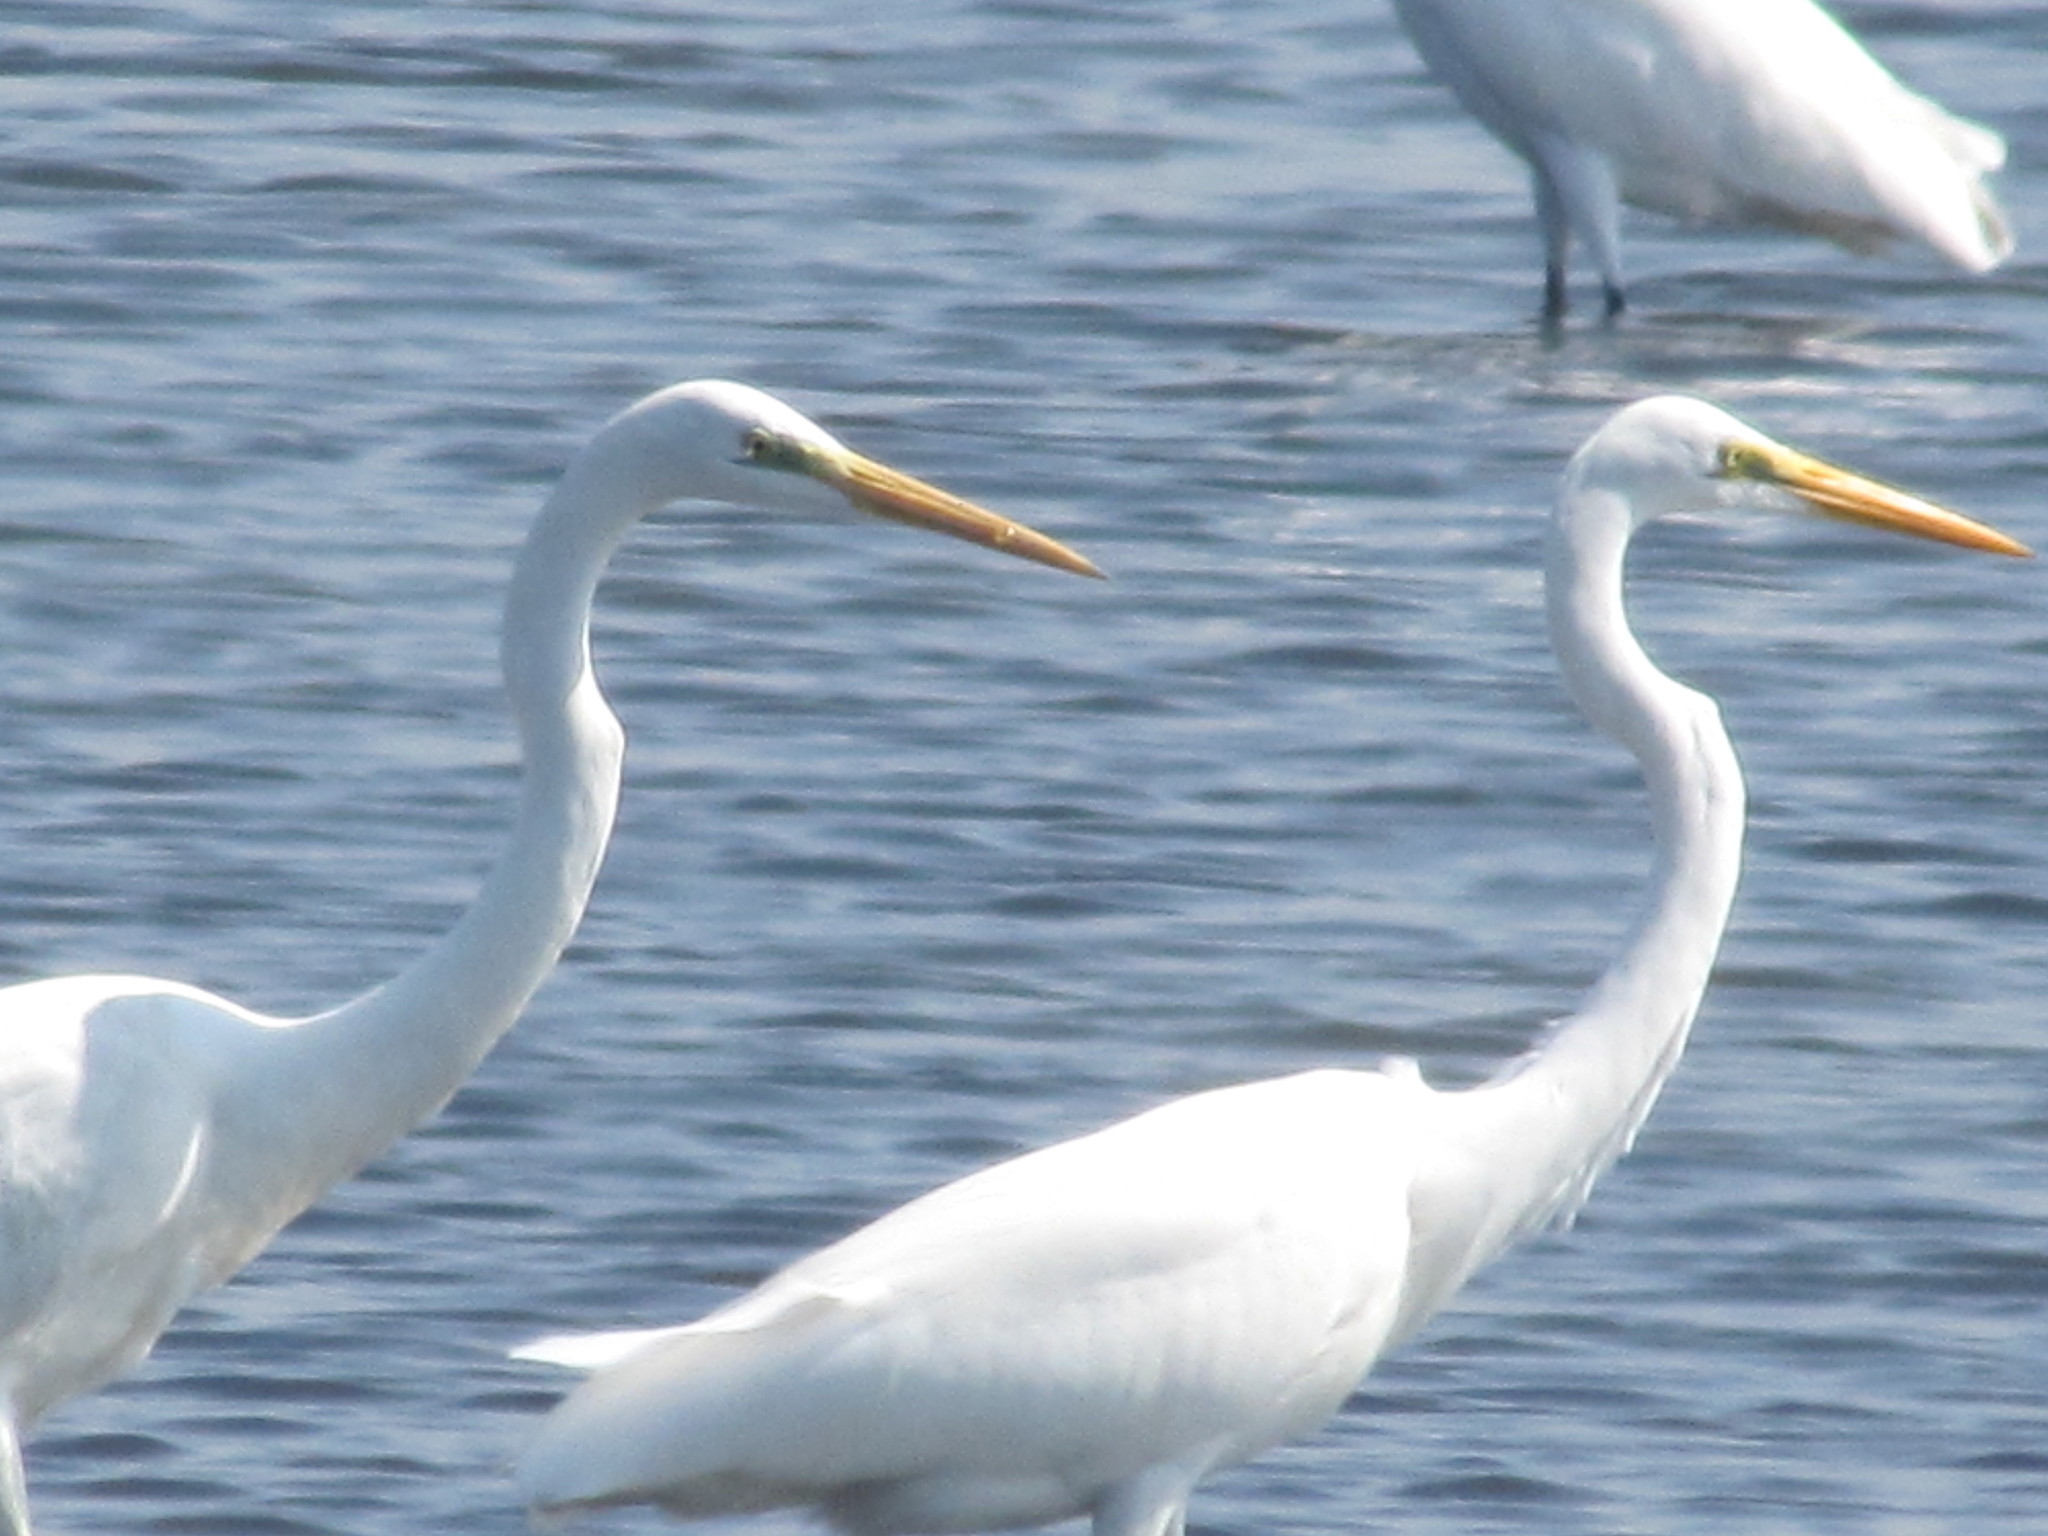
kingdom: Animalia
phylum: Chordata
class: Aves
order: Pelecaniformes
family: Ardeidae
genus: Ardea
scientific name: Ardea alba
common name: Great egret
